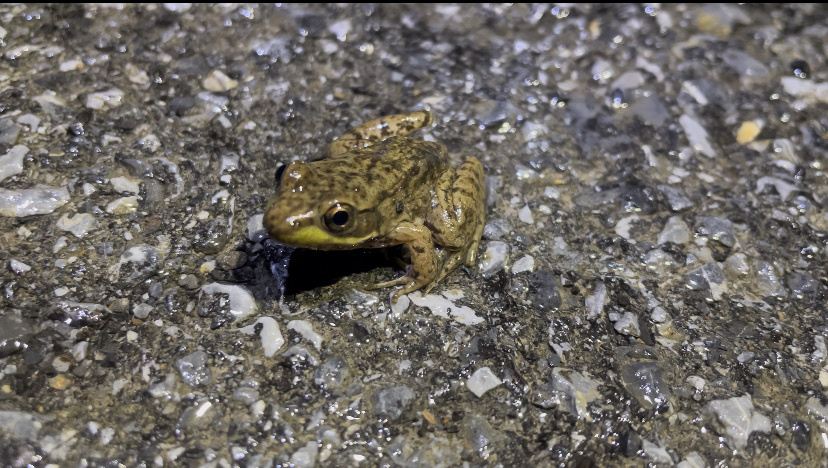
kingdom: Animalia
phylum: Chordata
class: Amphibia
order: Anura
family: Ranidae
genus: Lithobates
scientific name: Lithobates clamitans
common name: Green frog
